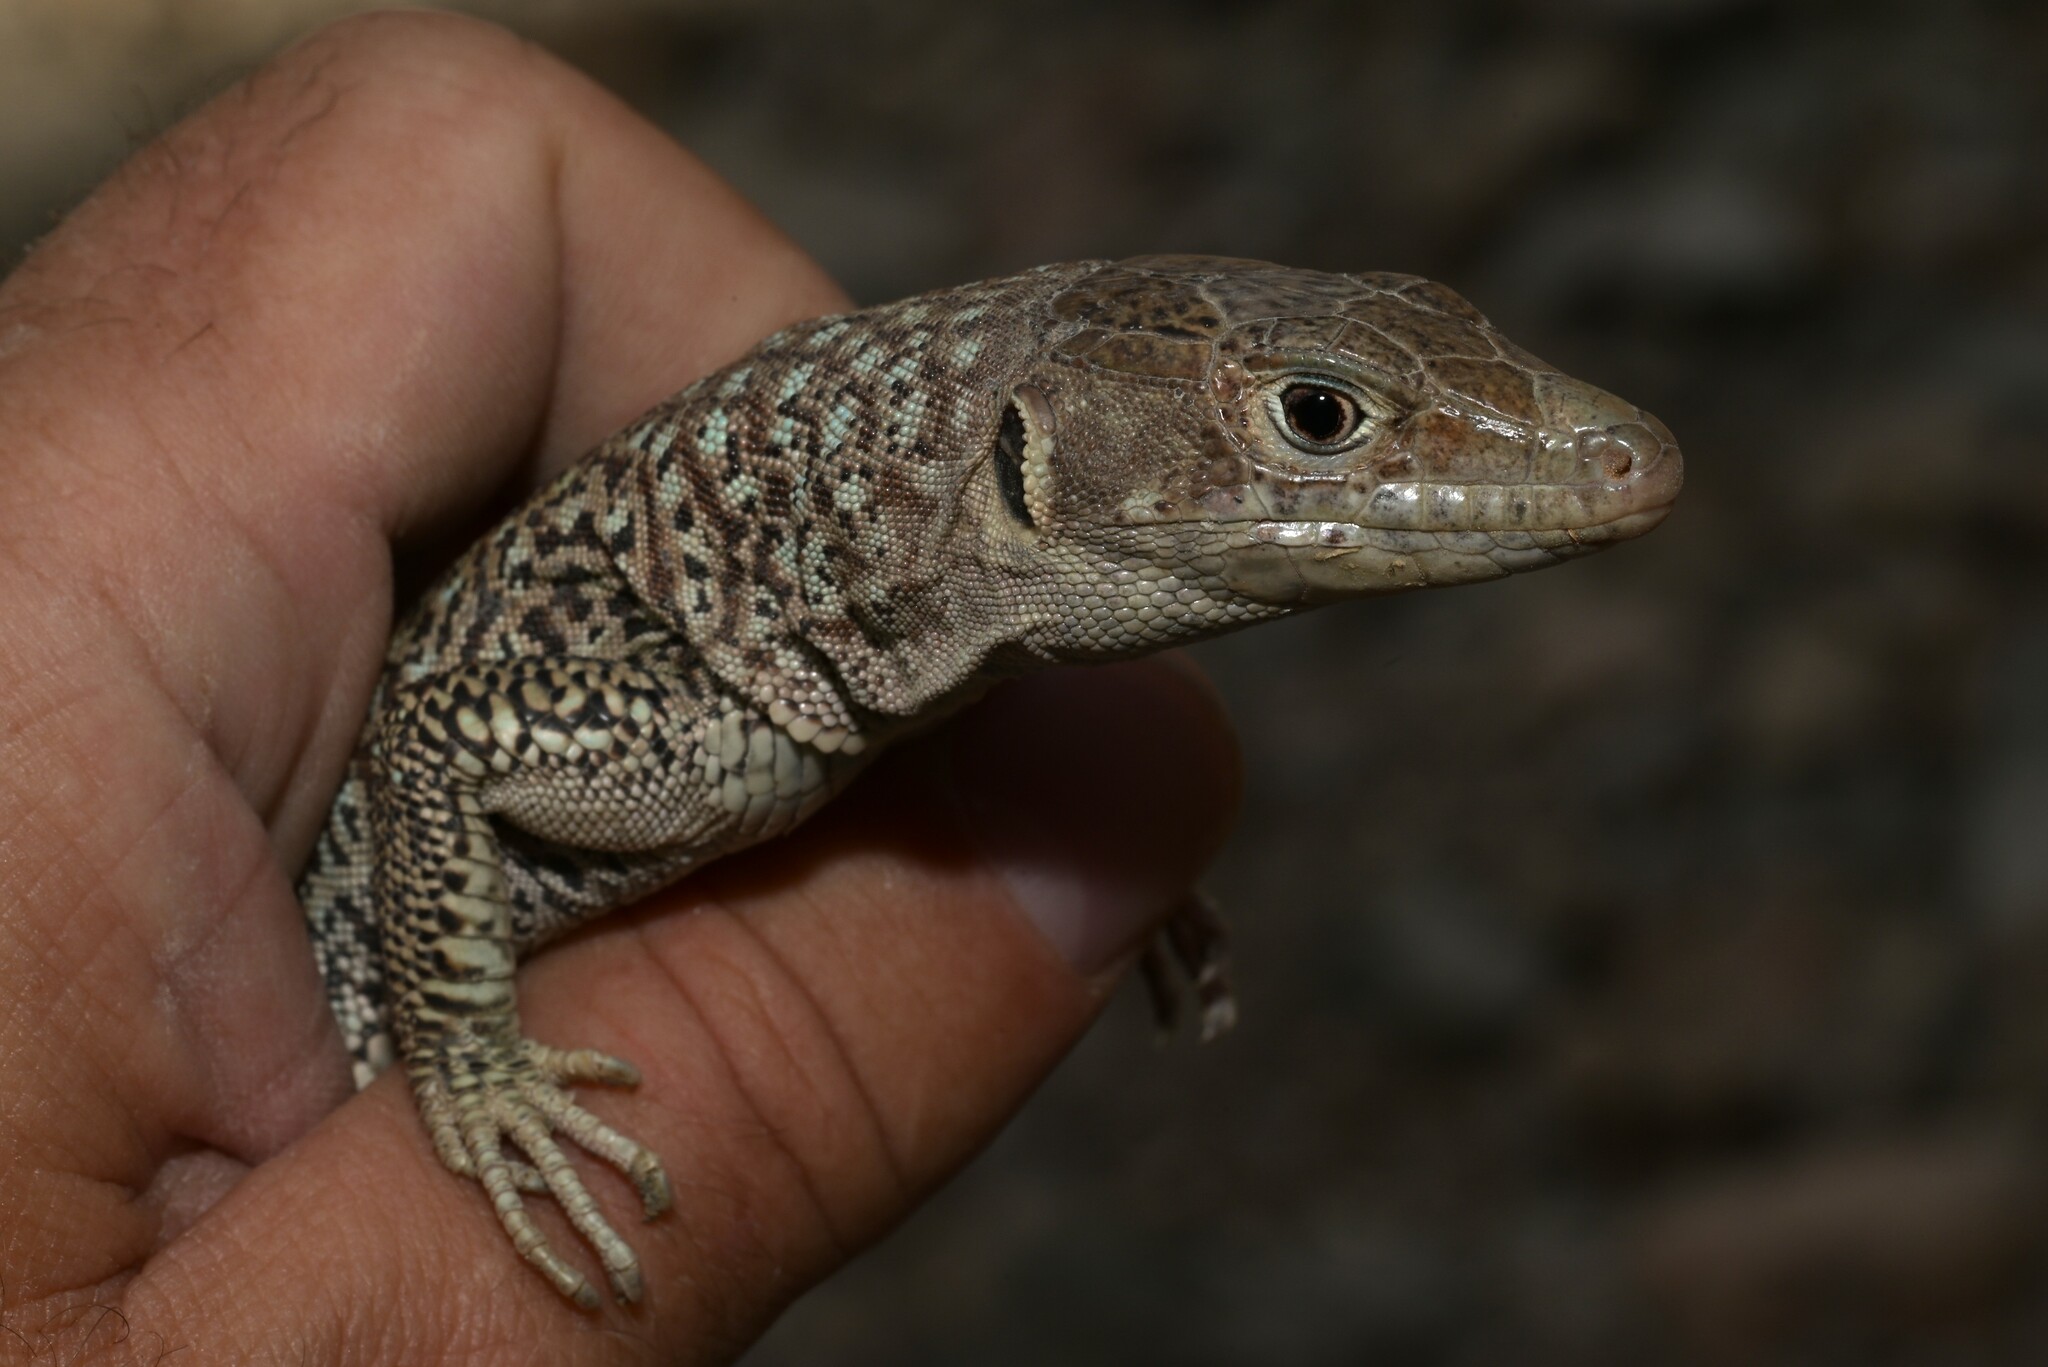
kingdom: Animalia
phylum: Chordata
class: Squamata
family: Lacertidae
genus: Omanosaura
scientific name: Omanosaura jayakari
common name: Jayakar lizard
